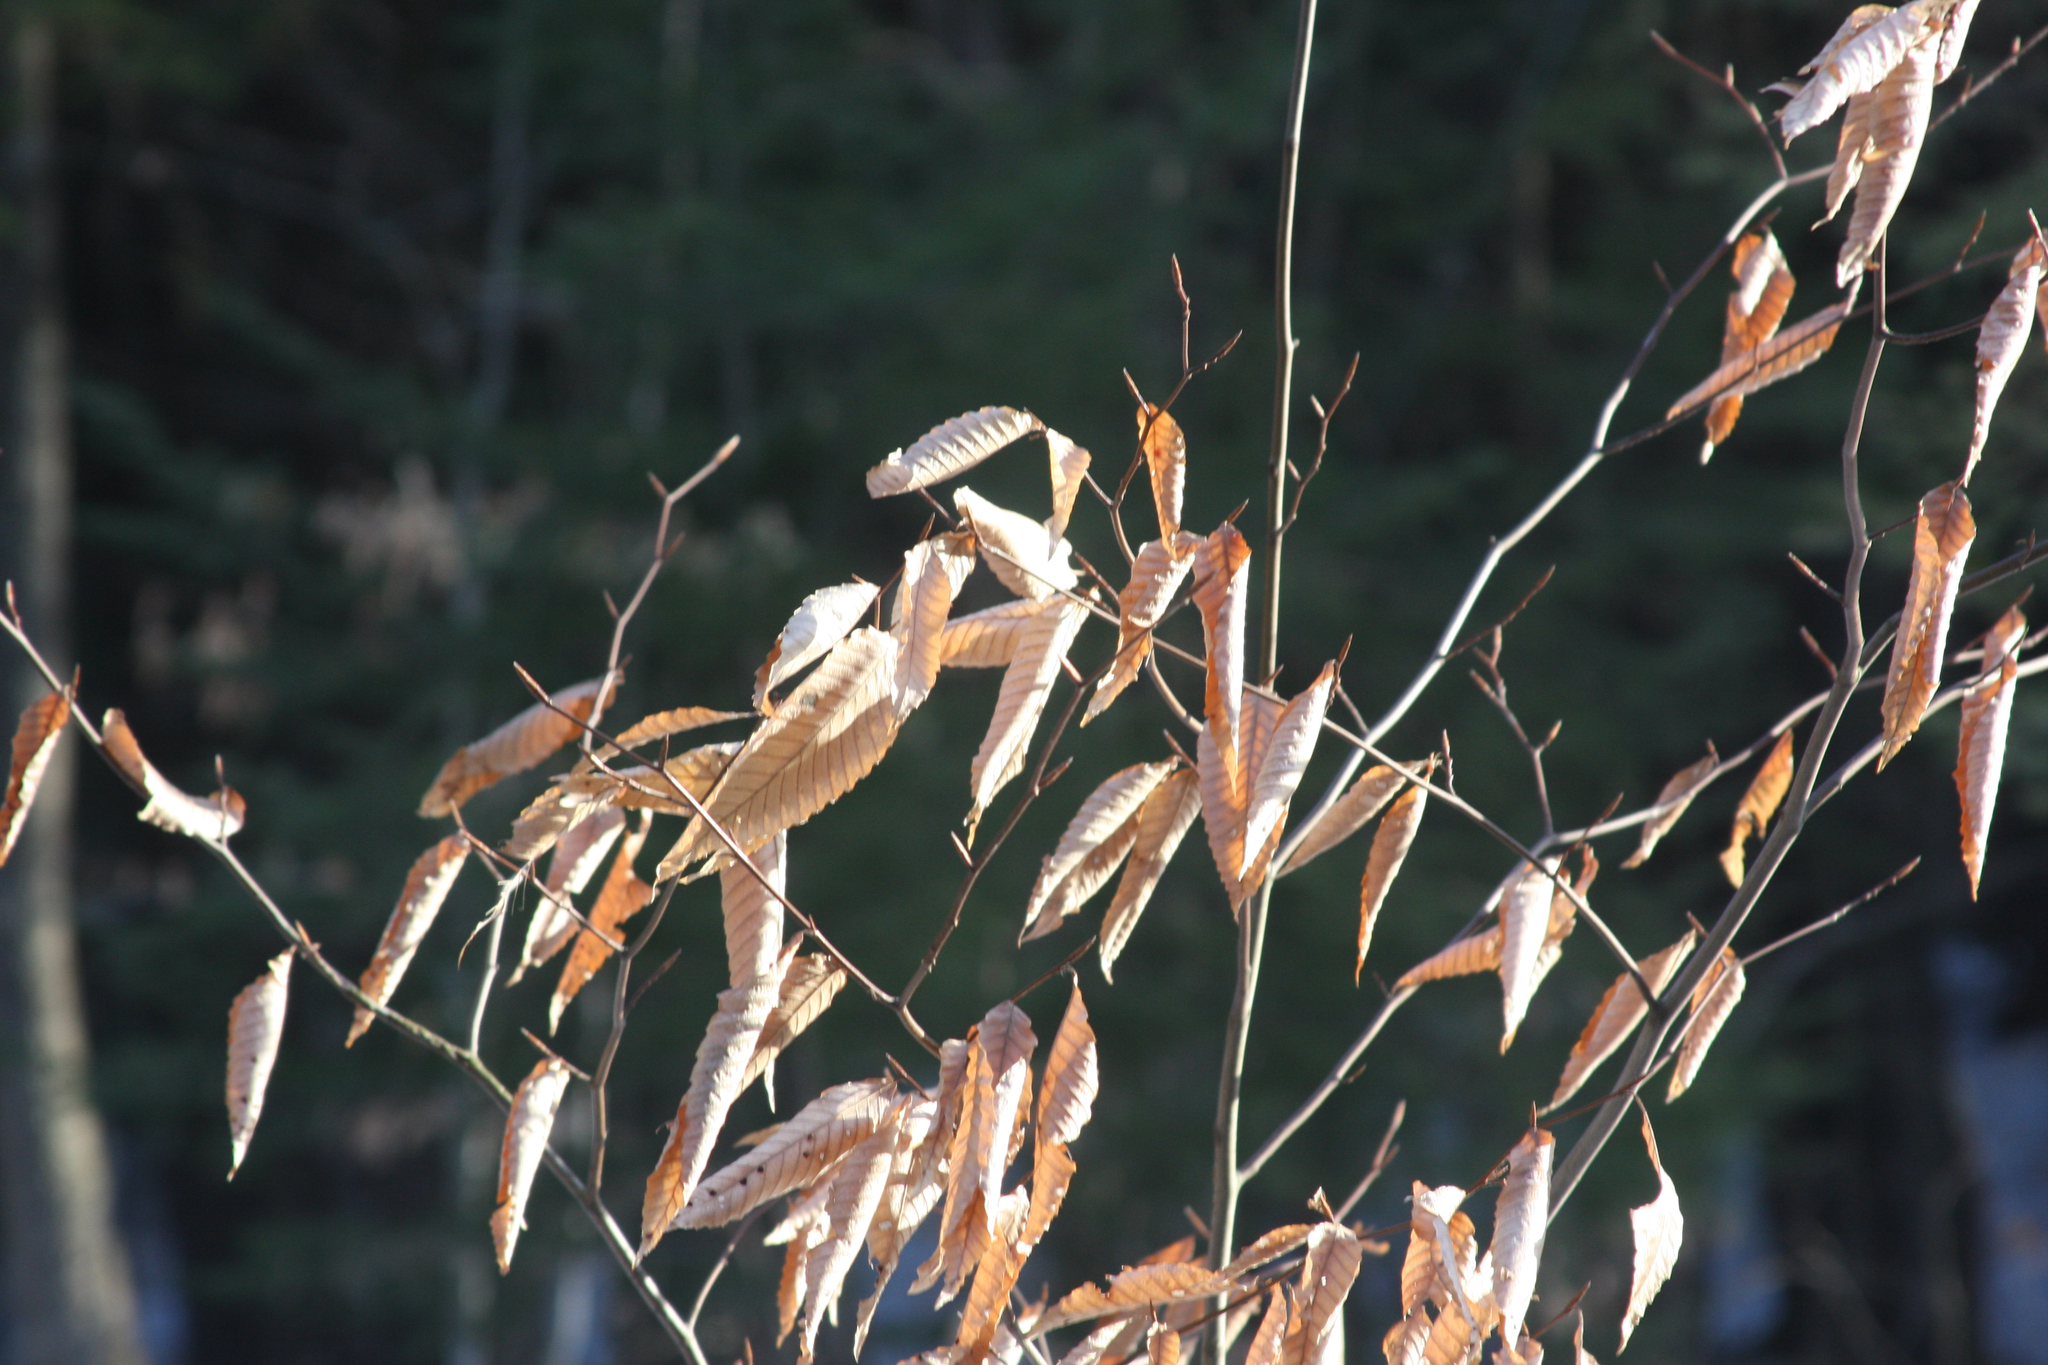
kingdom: Plantae
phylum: Tracheophyta
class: Magnoliopsida
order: Fagales
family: Fagaceae
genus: Fagus
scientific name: Fagus grandifolia
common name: American beech
